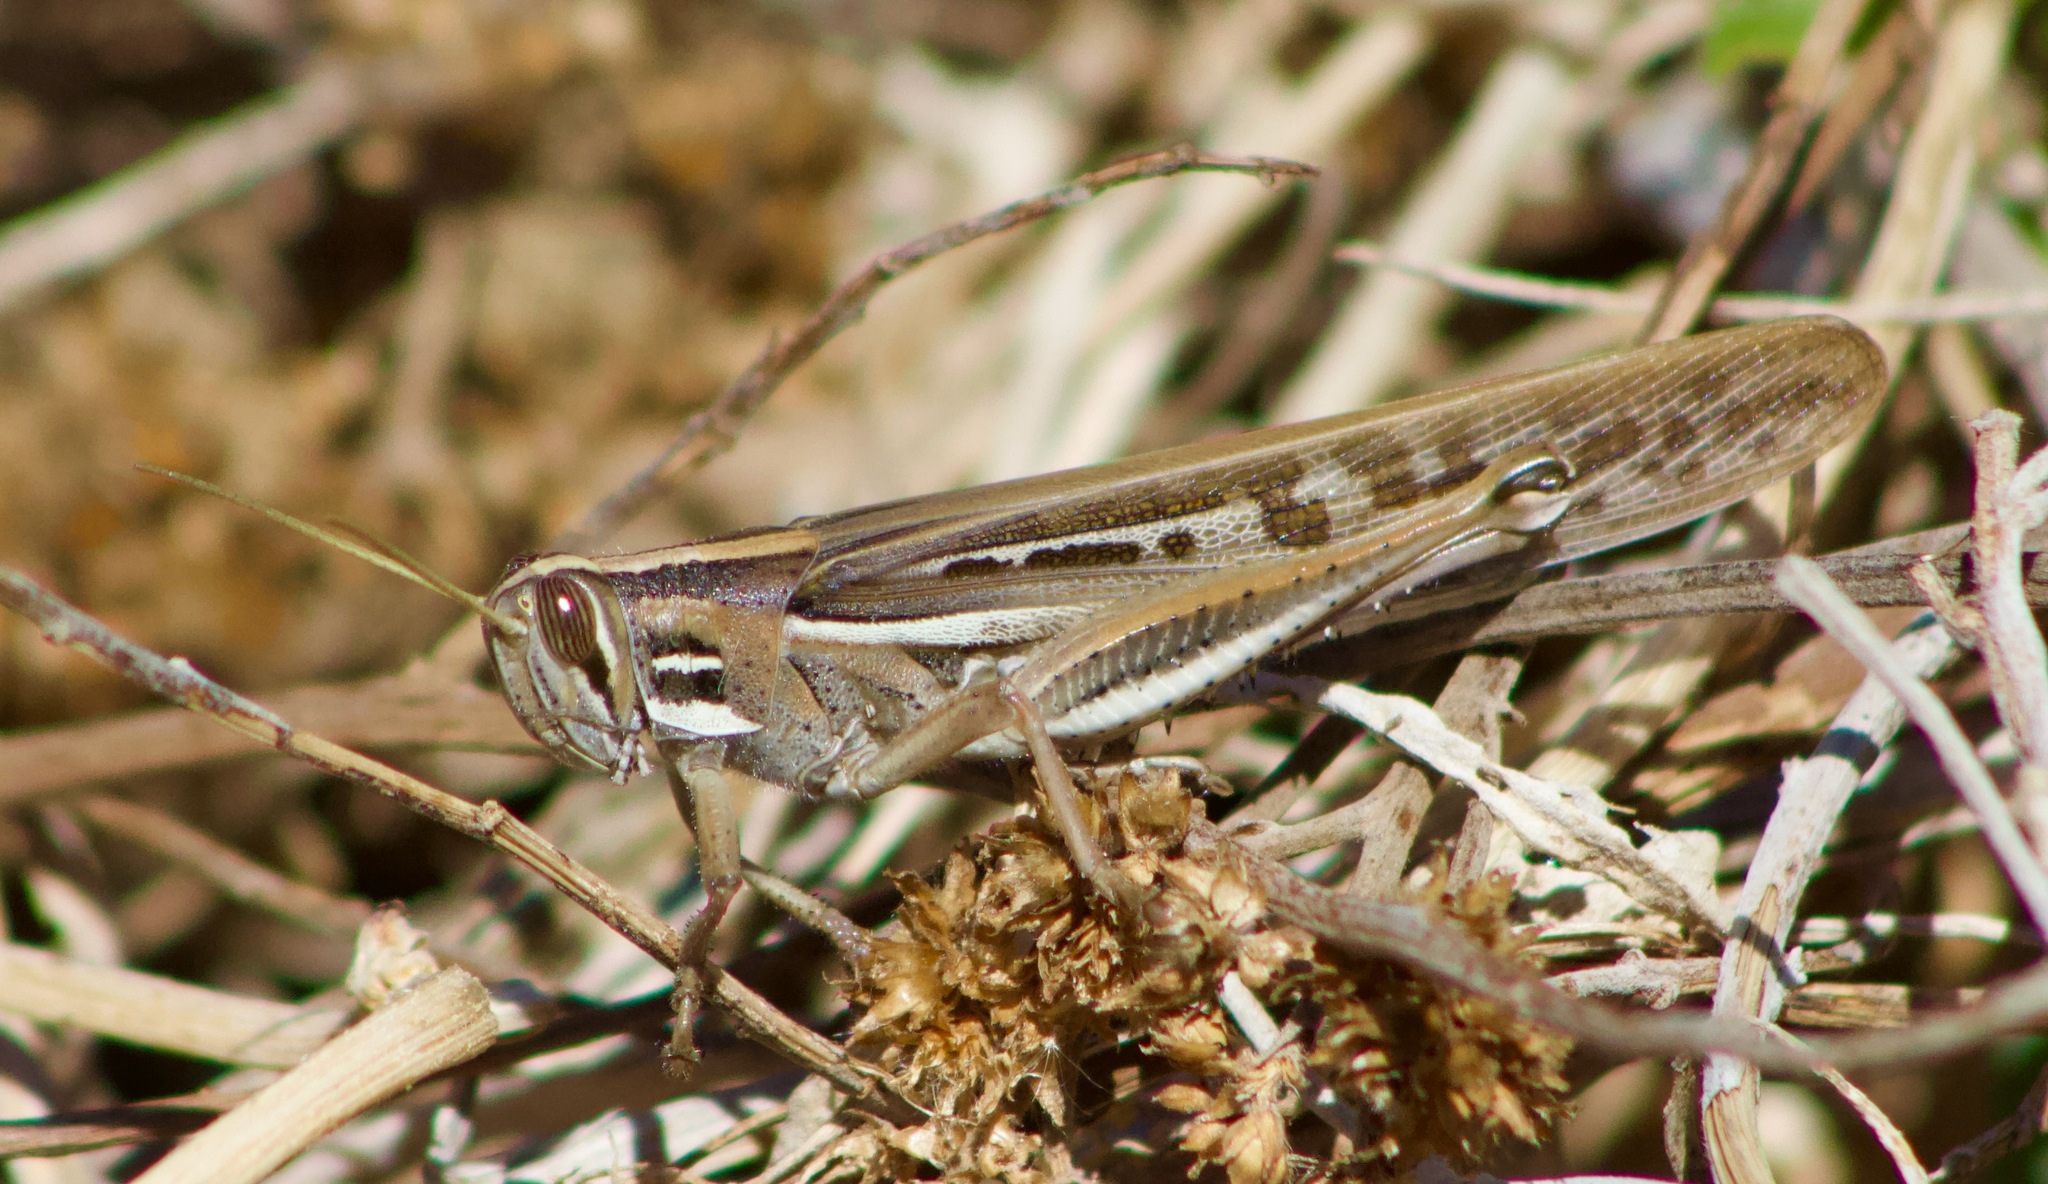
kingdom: Animalia
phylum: Arthropoda
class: Insecta
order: Orthoptera
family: Acrididae
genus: Schistocerca
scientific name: Schistocerca cancellata
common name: South american locust
